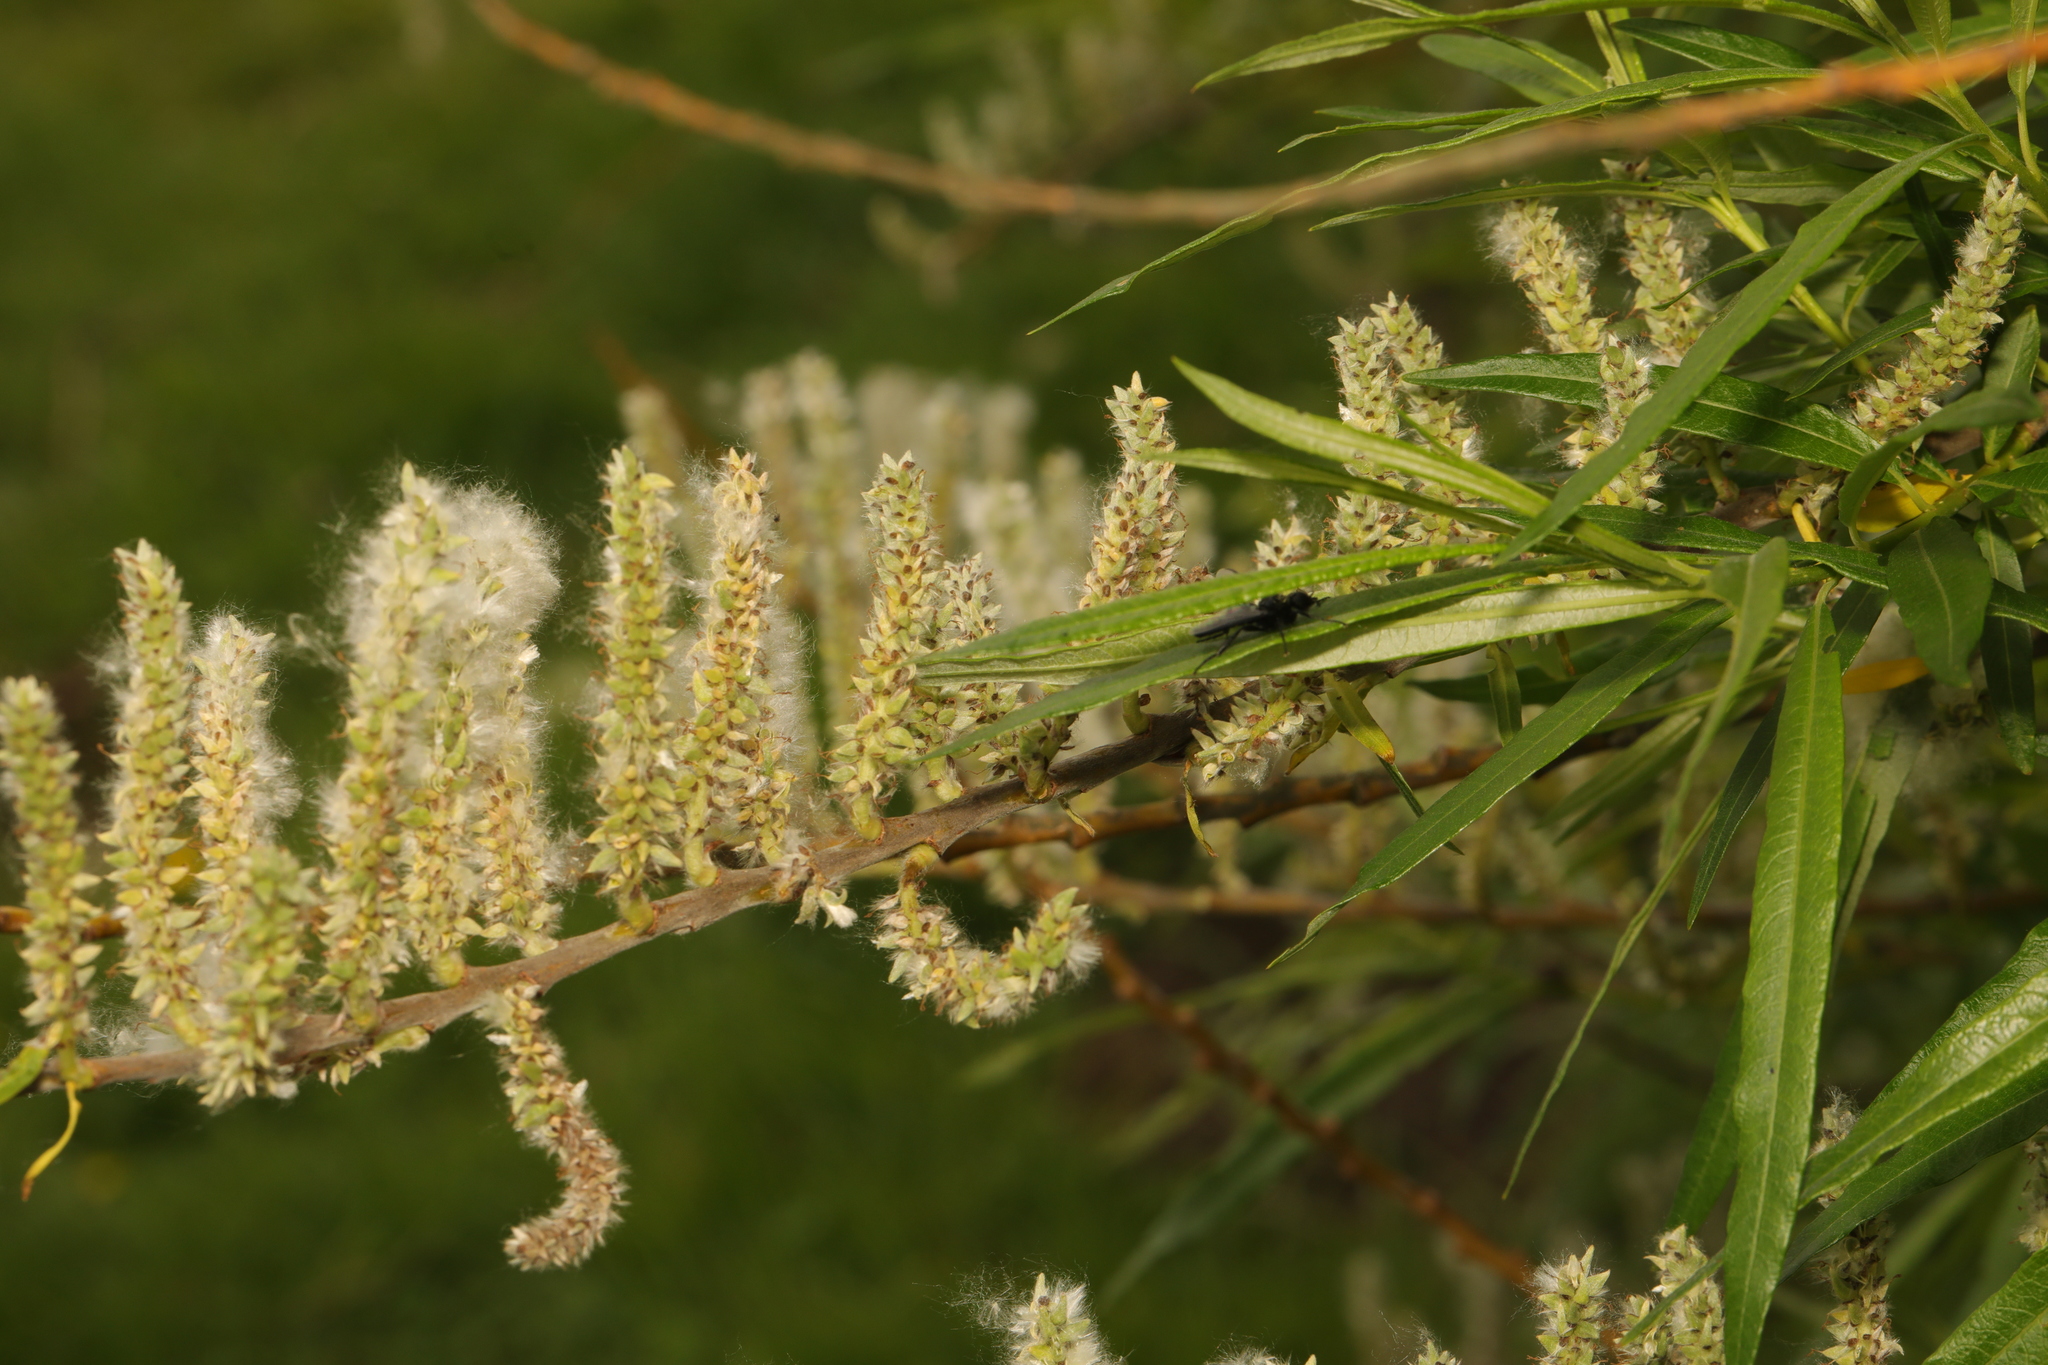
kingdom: Plantae
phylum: Tracheophyta
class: Magnoliopsida
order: Malpighiales
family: Salicaceae
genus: Salix
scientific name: Salix viminalis
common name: Osier
